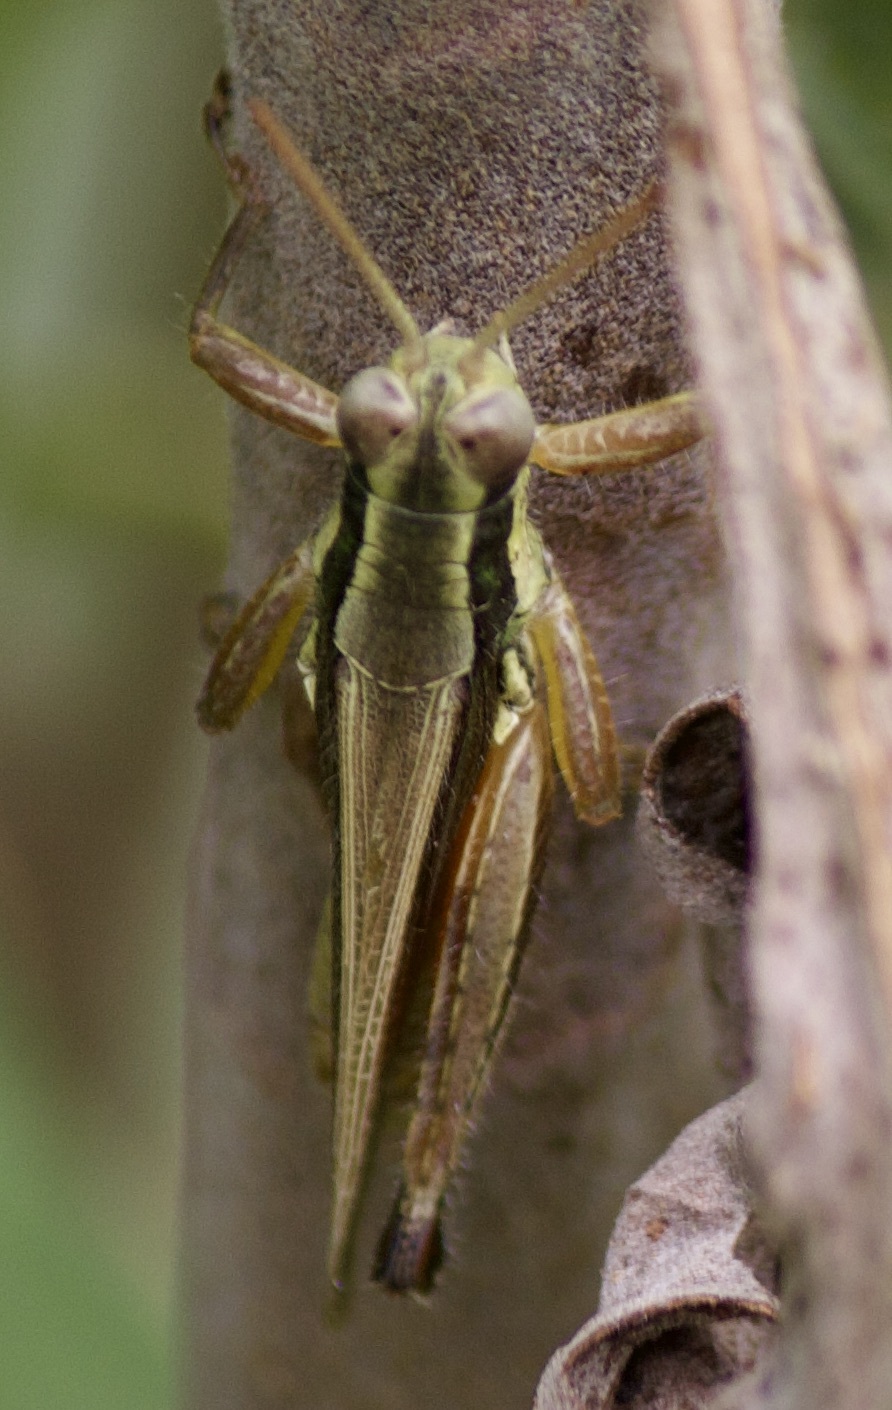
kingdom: Animalia
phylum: Arthropoda
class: Insecta
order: Orthoptera
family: Acrididae
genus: Dichroplus
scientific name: Dichroplus elongatus
